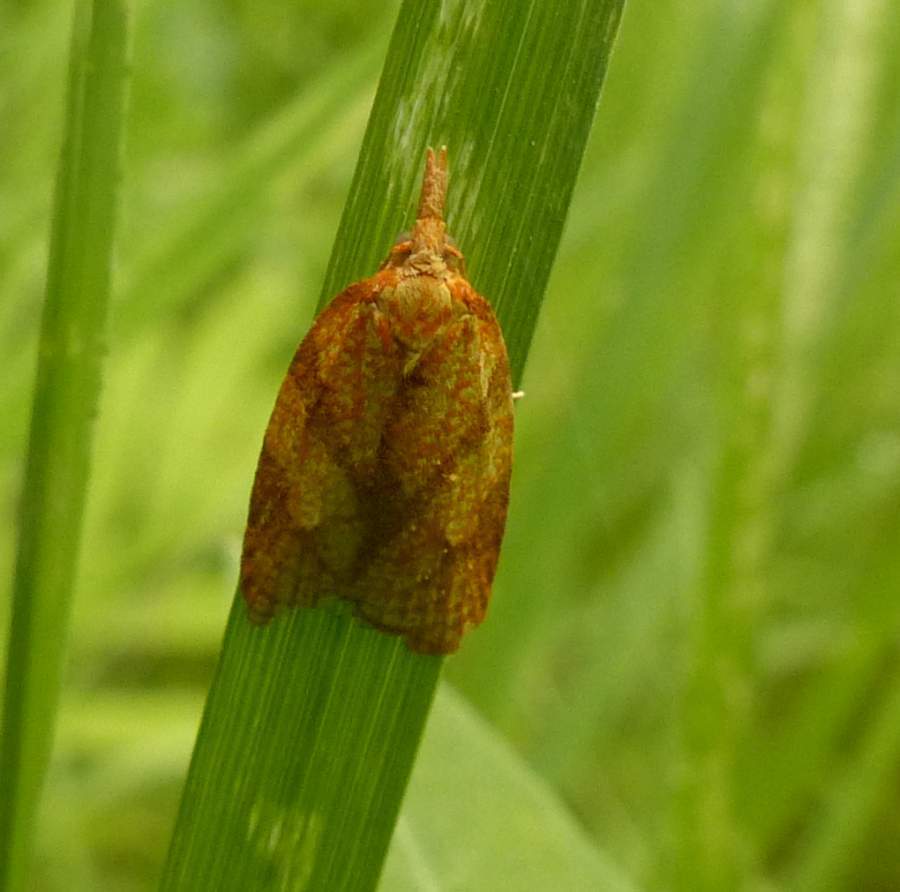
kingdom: Animalia
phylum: Arthropoda
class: Insecta
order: Lepidoptera
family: Tortricidae
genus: Cenopis
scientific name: Cenopis reticulatana
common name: Reticulated fruitworm moth
